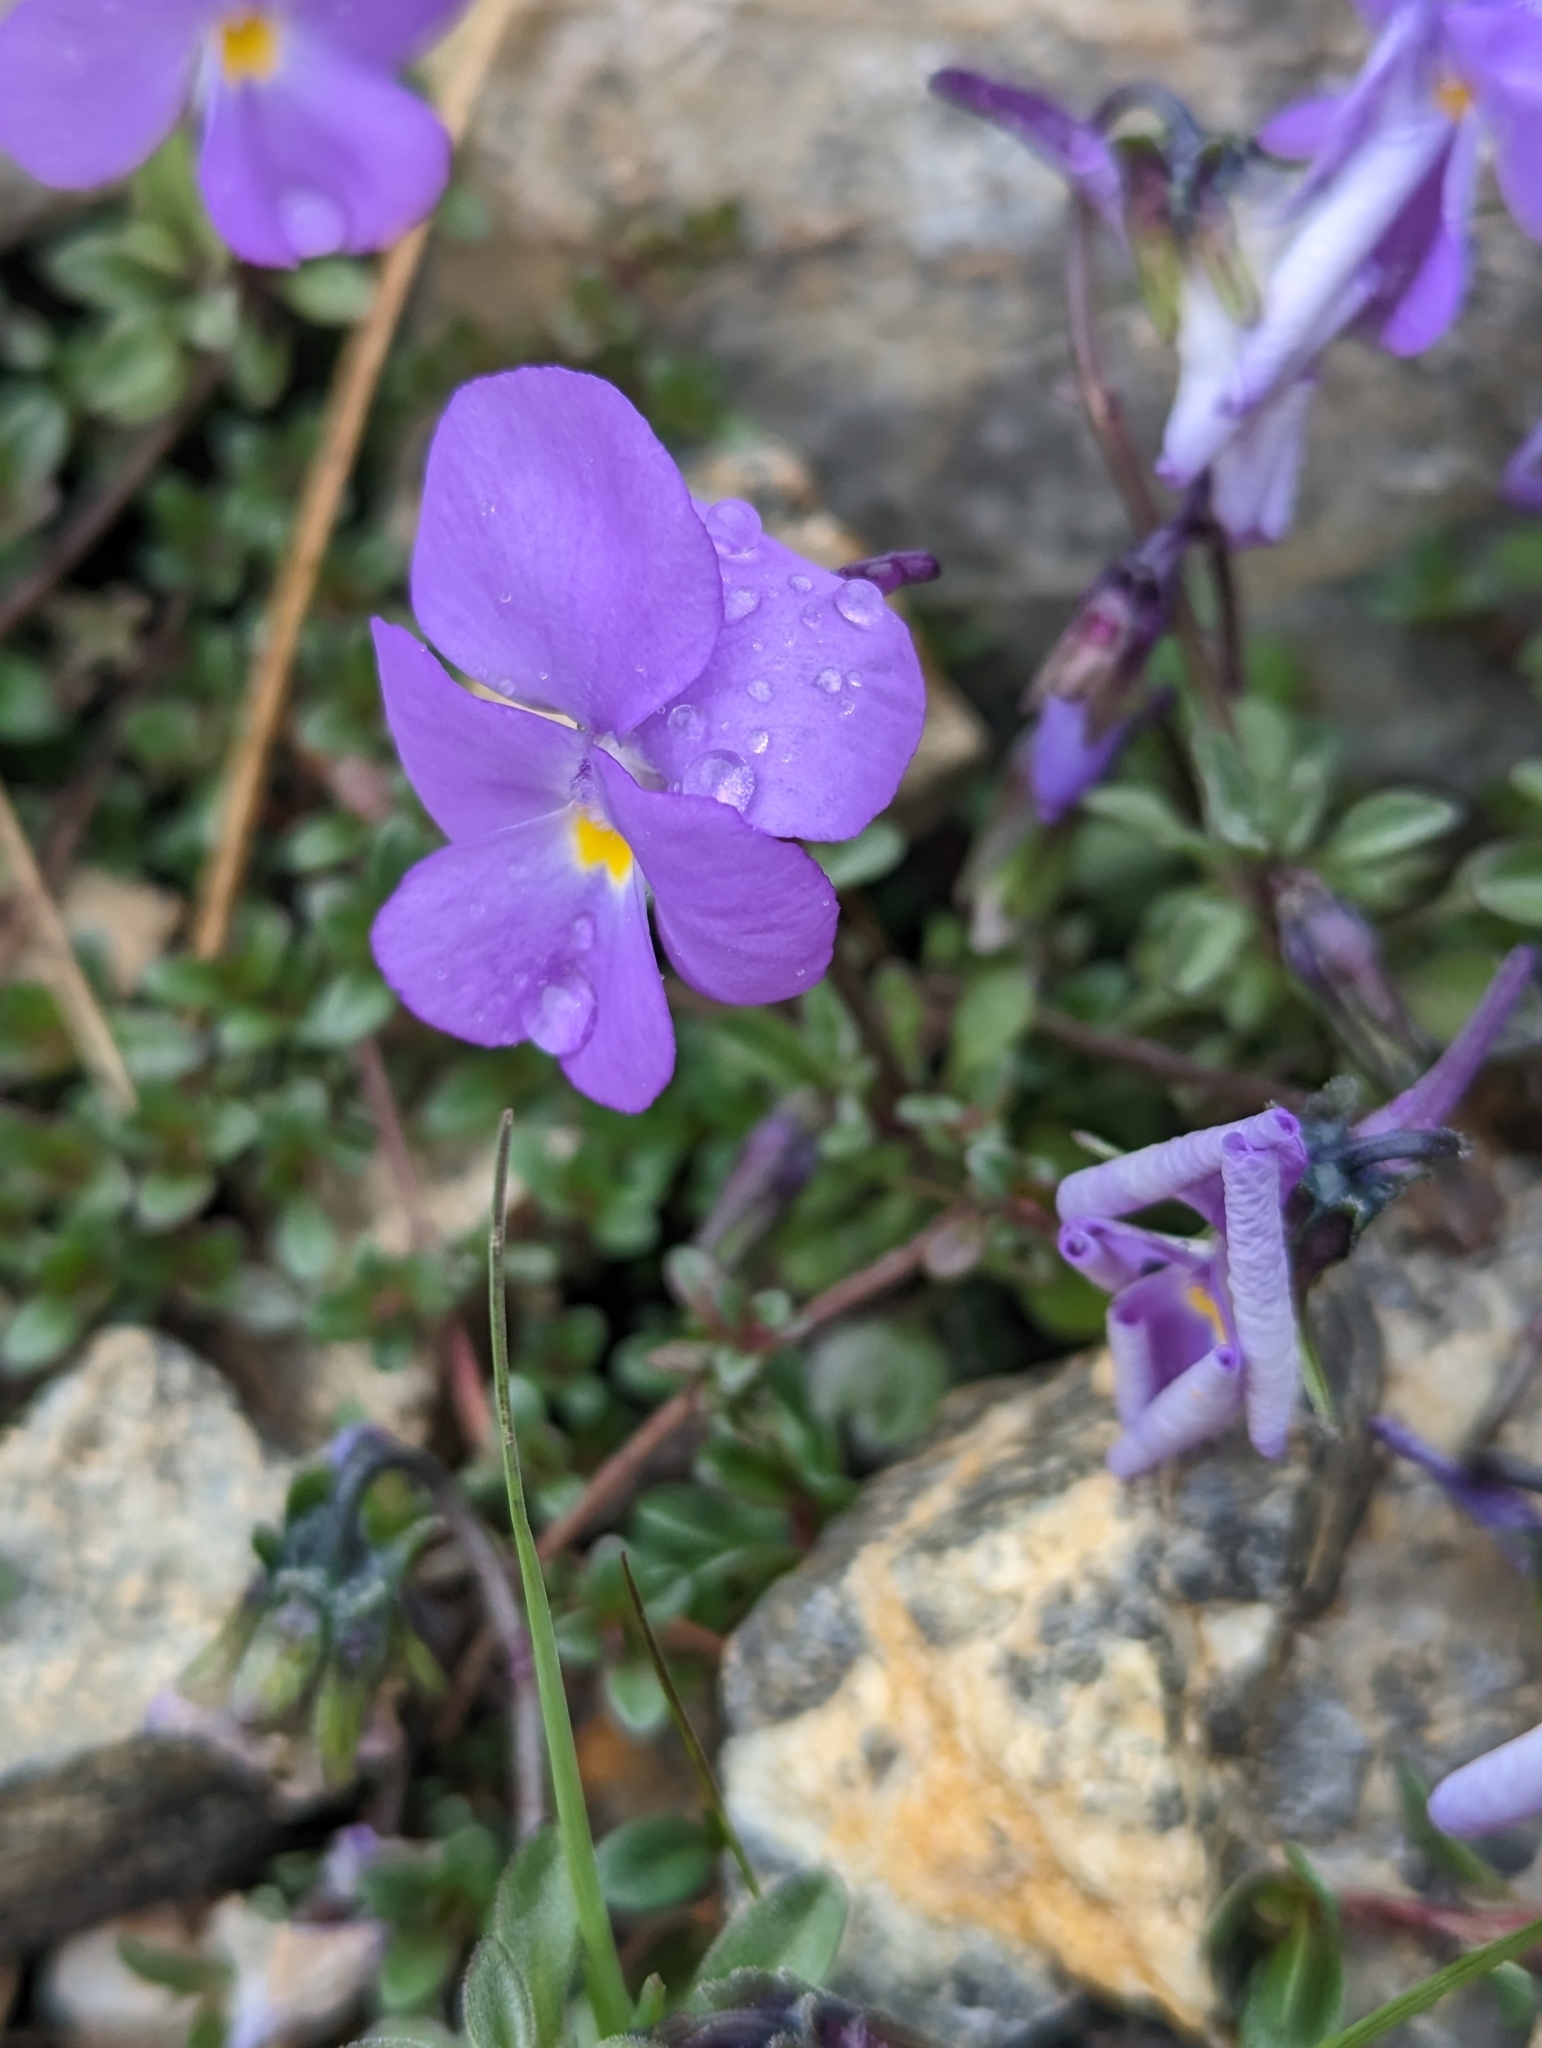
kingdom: Plantae
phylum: Tracheophyta
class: Magnoliopsida
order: Malpighiales
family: Violaceae
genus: Viola
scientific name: Viola cenisia
